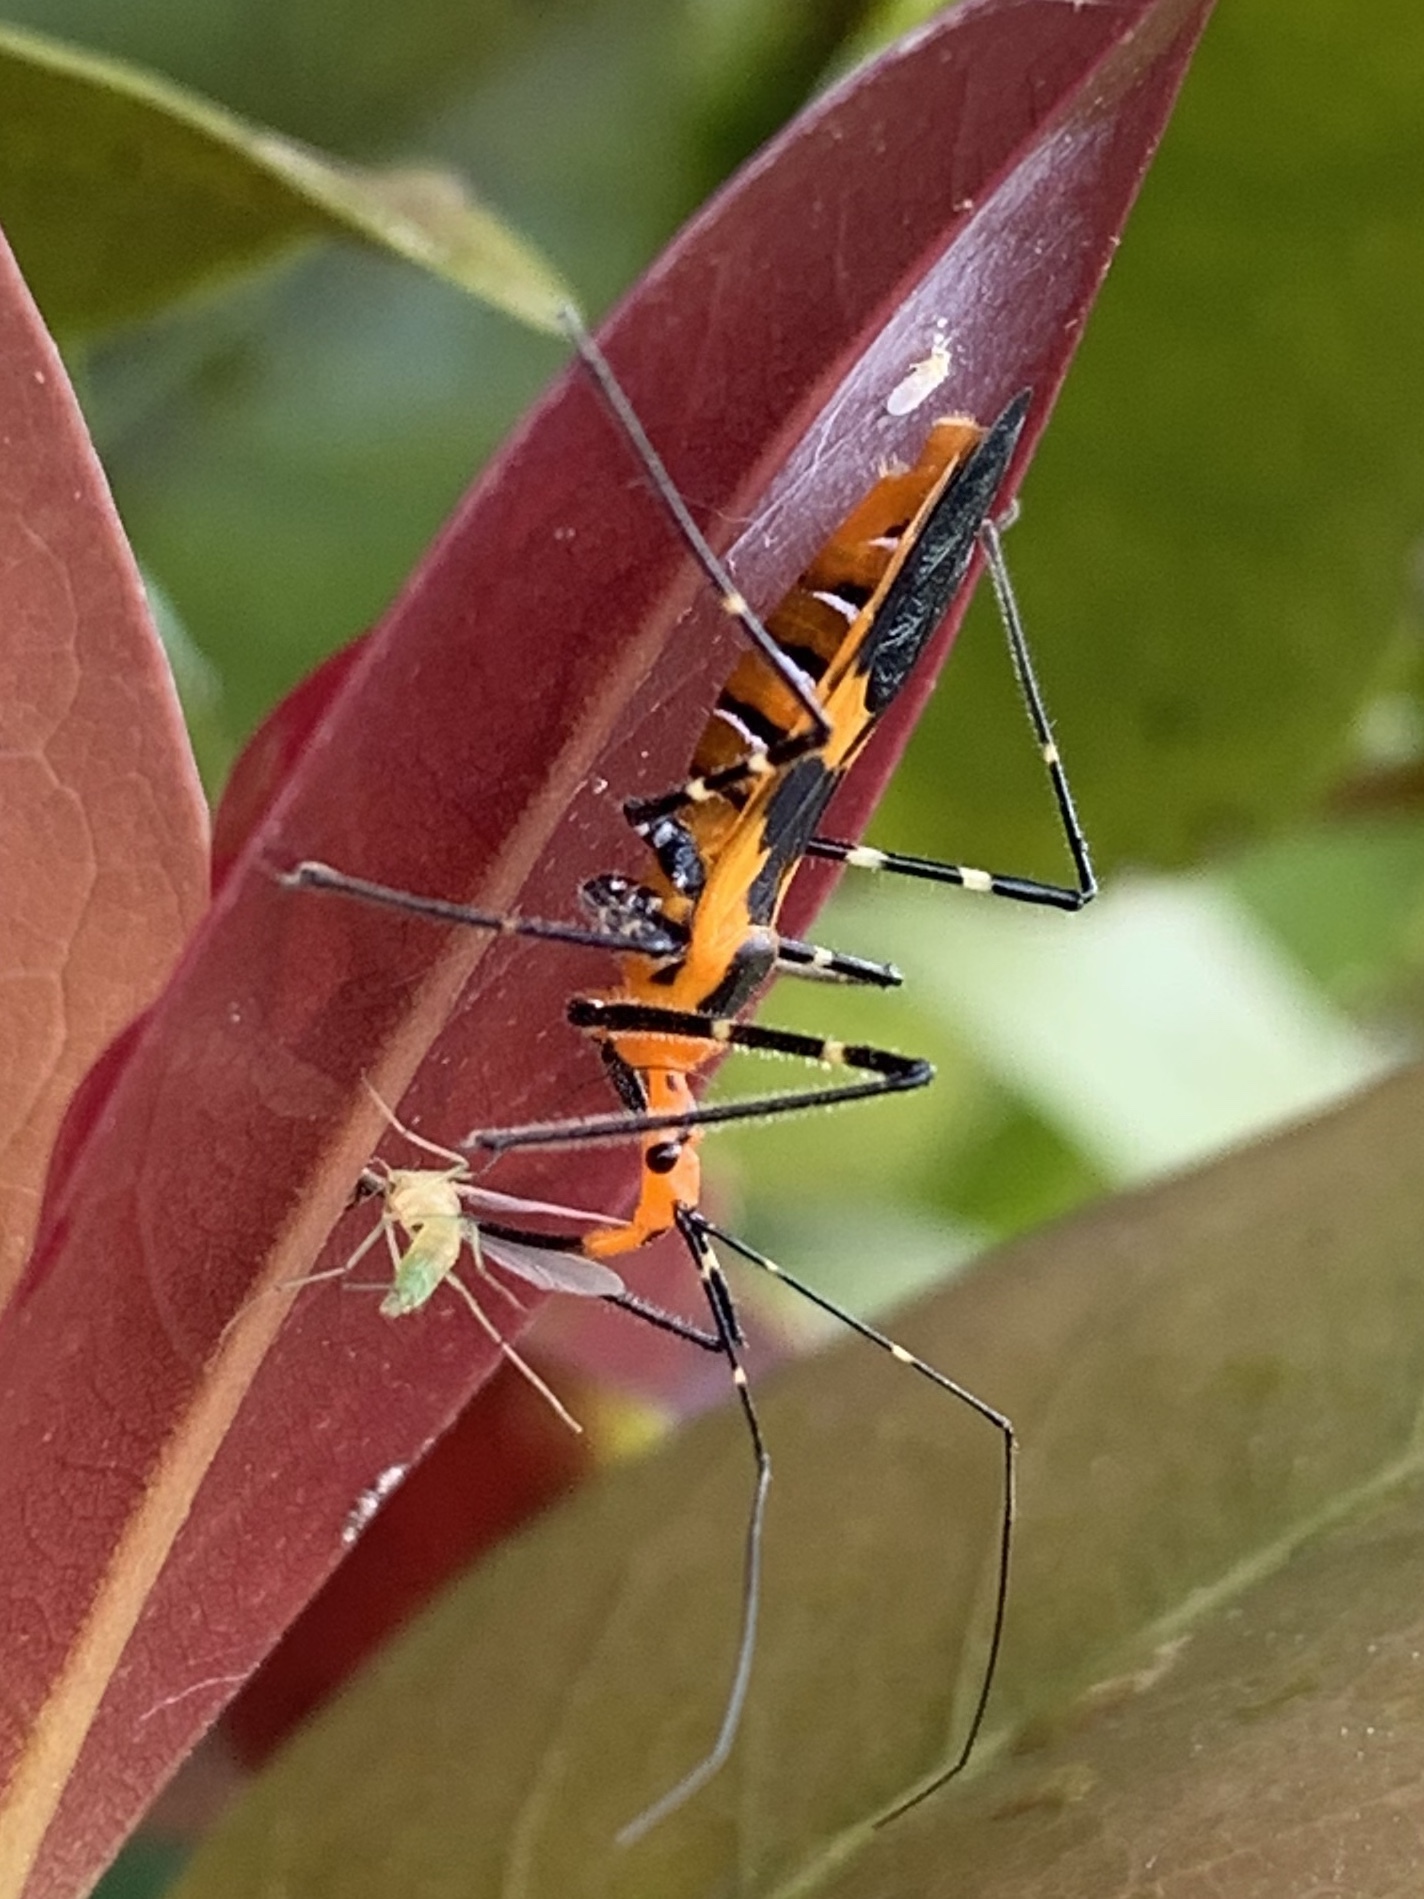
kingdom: Animalia
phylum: Arthropoda
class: Insecta
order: Hemiptera
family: Reduviidae
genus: Zelus
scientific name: Zelus longipes
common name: Milkweed assassin bug
